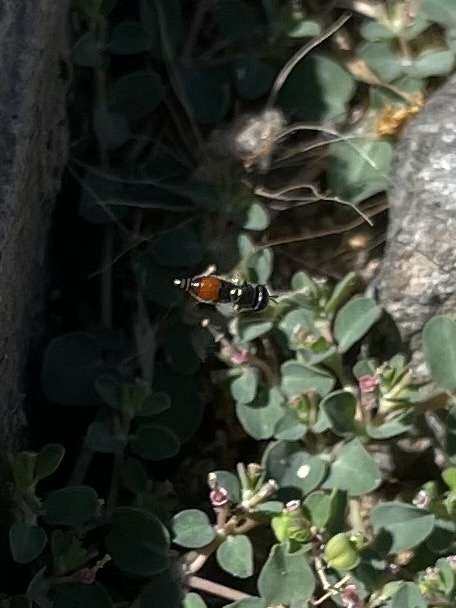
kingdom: Animalia
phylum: Arthropoda
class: Insecta
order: Diptera
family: Syrphidae
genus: Paragus
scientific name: Paragus haemorrhous
